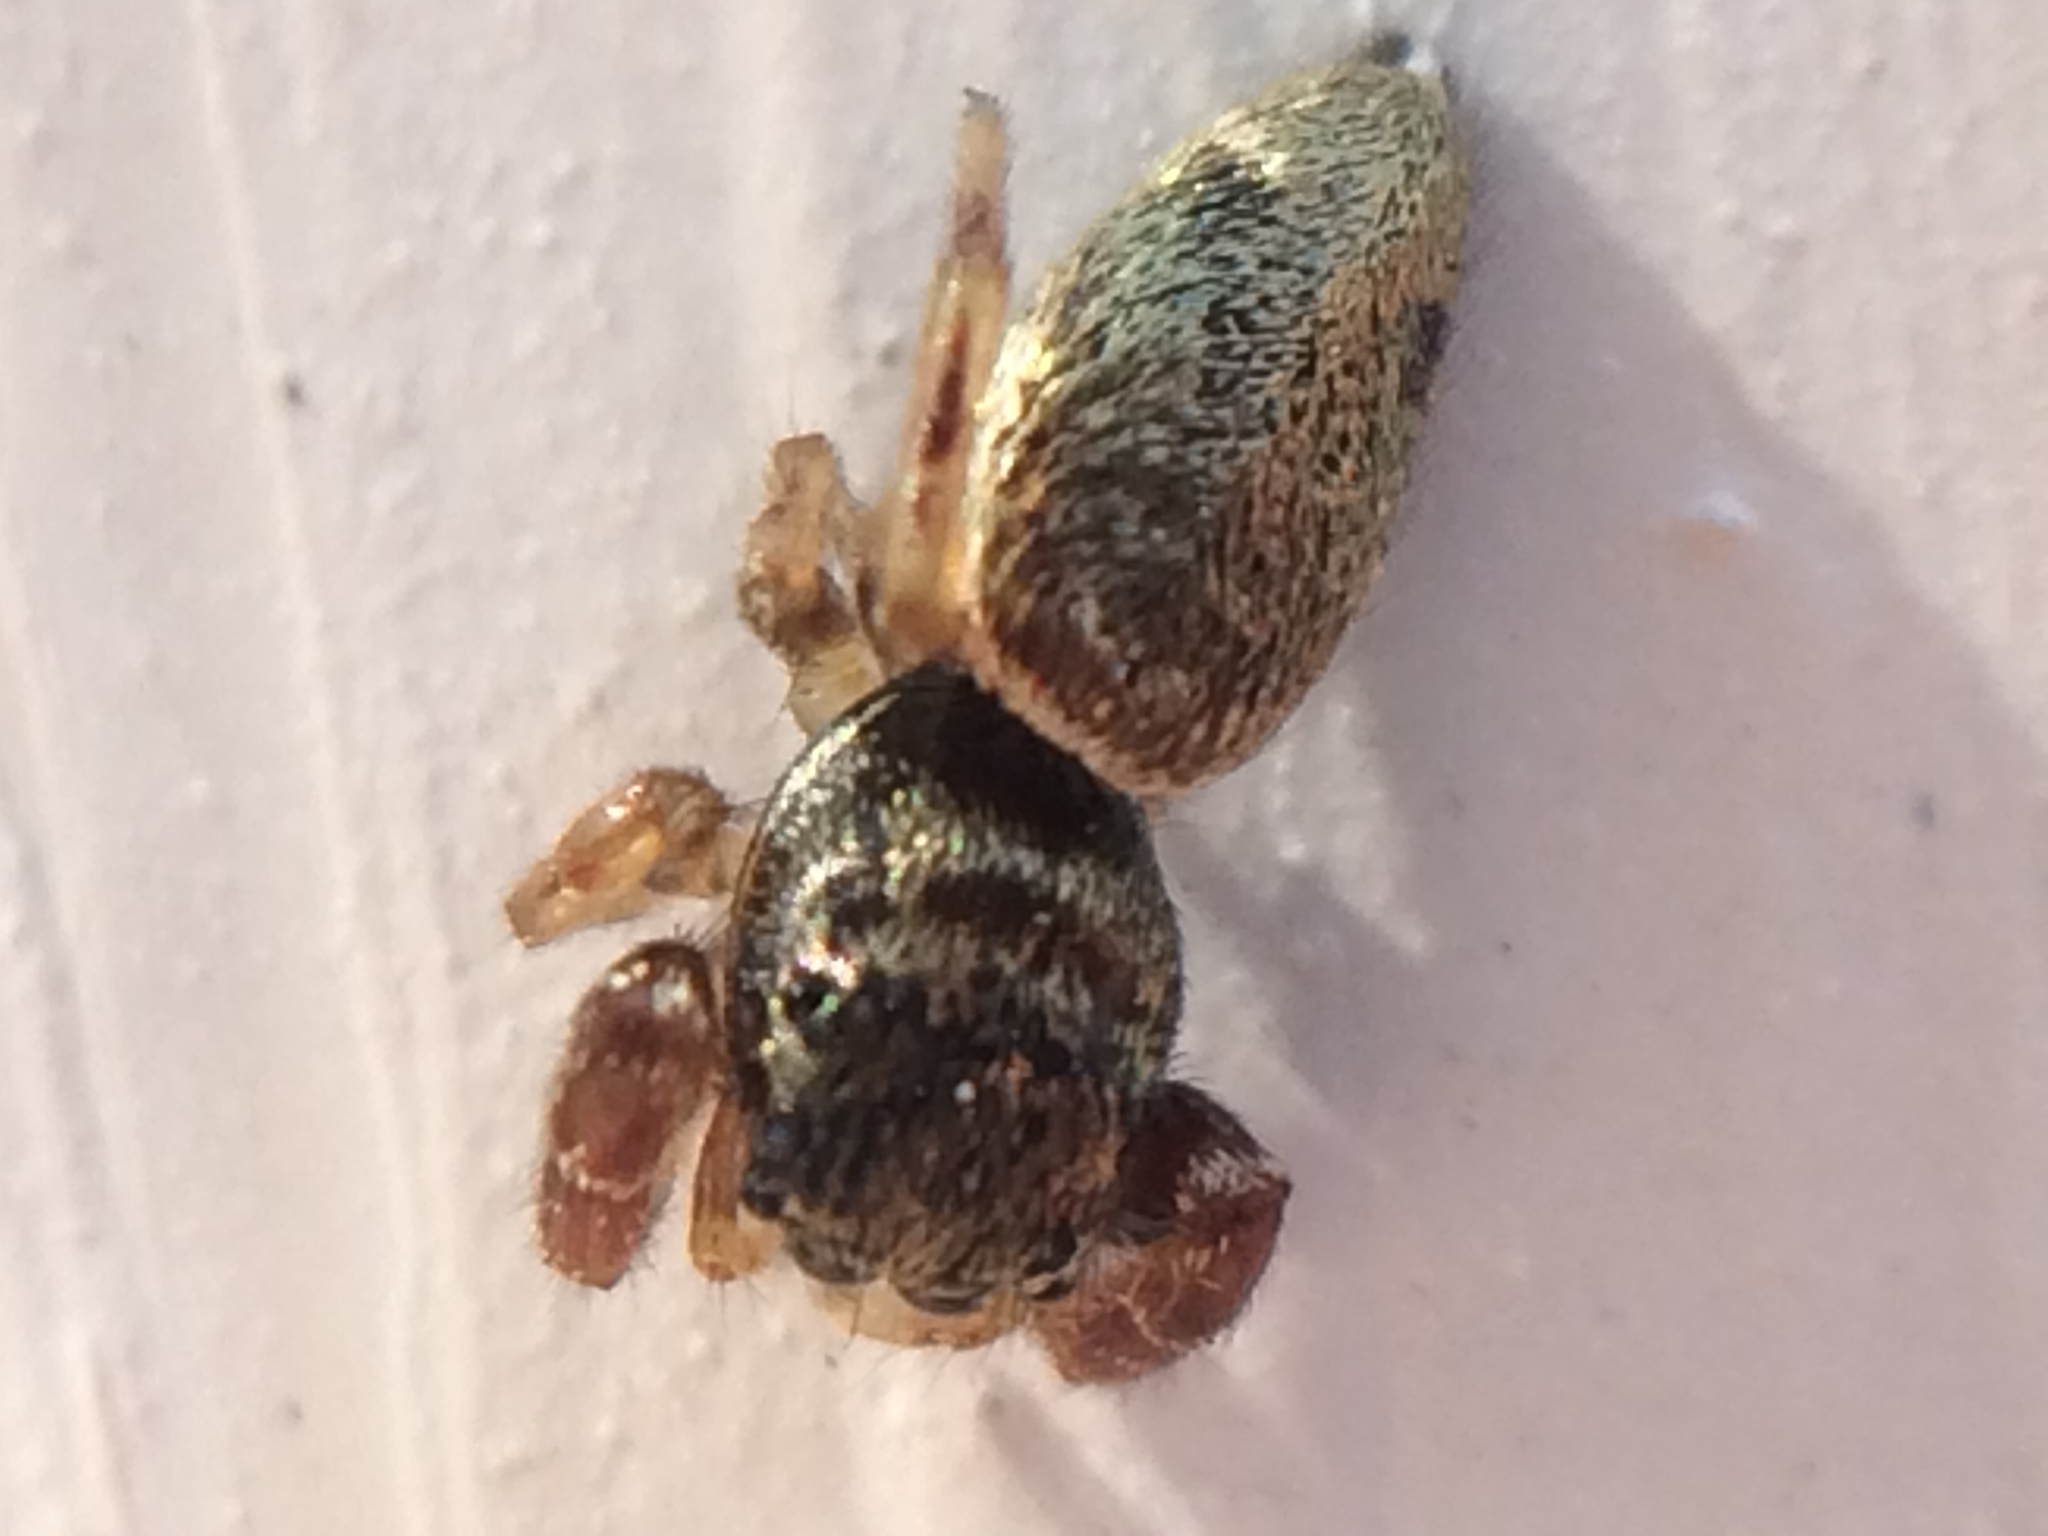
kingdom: Animalia
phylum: Arthropoda
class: Arachnida
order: Araneae
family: Salticidae
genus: Sassacus
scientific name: Sassacus vitis
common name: Jumping spiders
